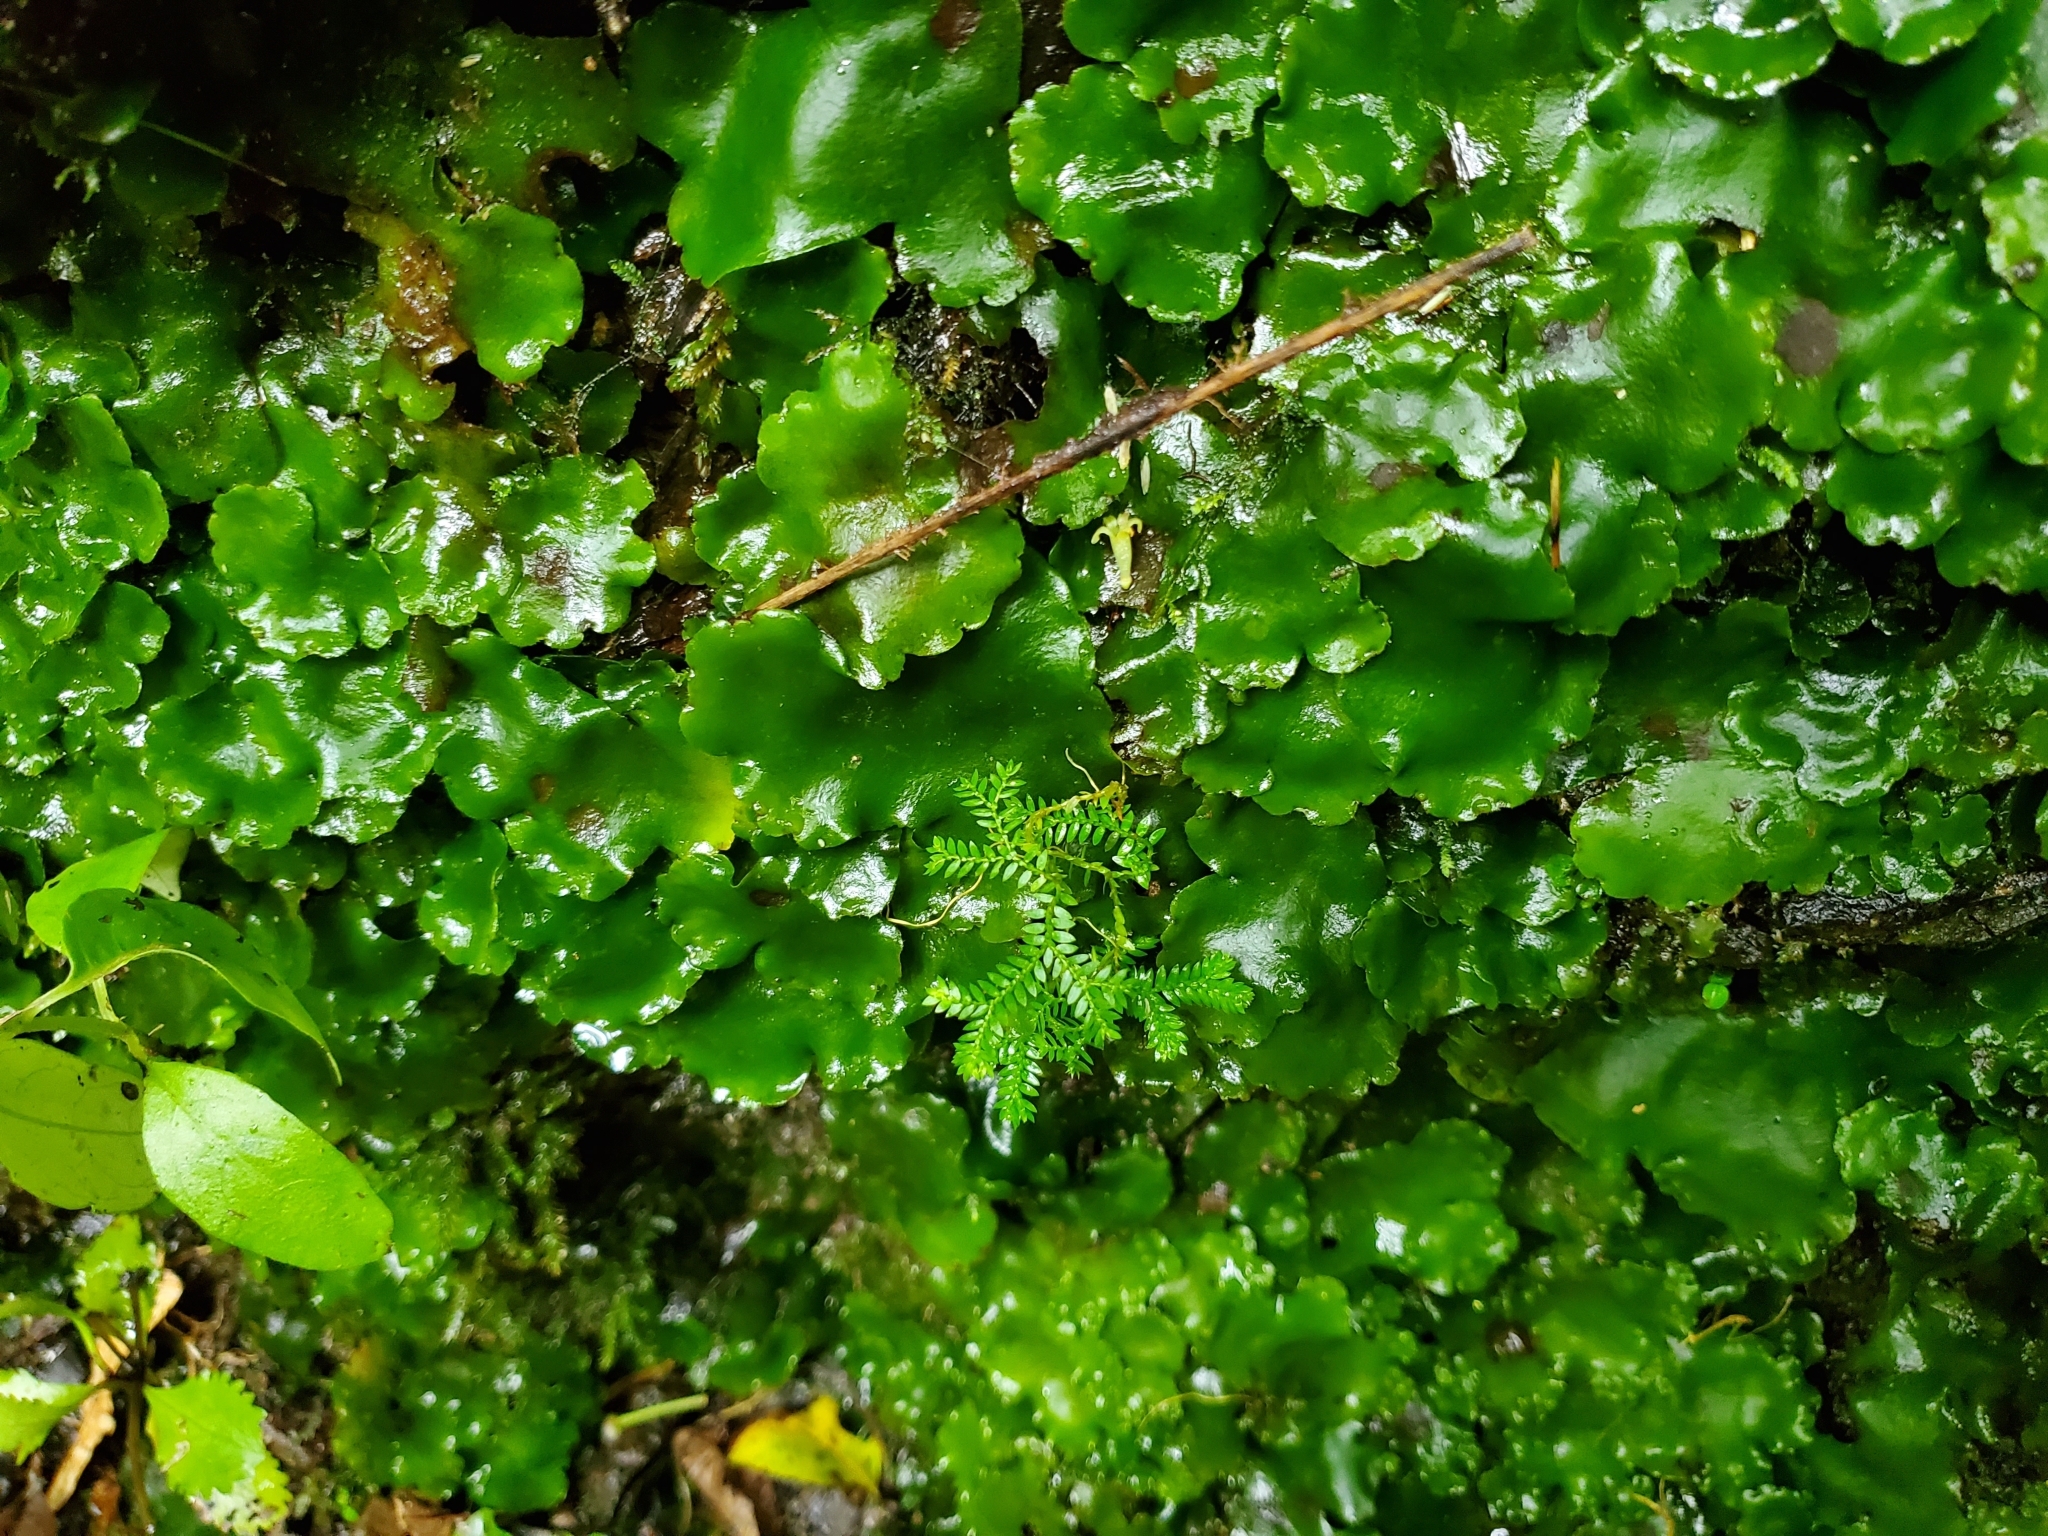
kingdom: Plantae
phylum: Marchantiophyta
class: Marchantiopsida
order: Marchantiales
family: Monocleaceae
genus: Monoclea
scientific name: Monoclea forsteri
